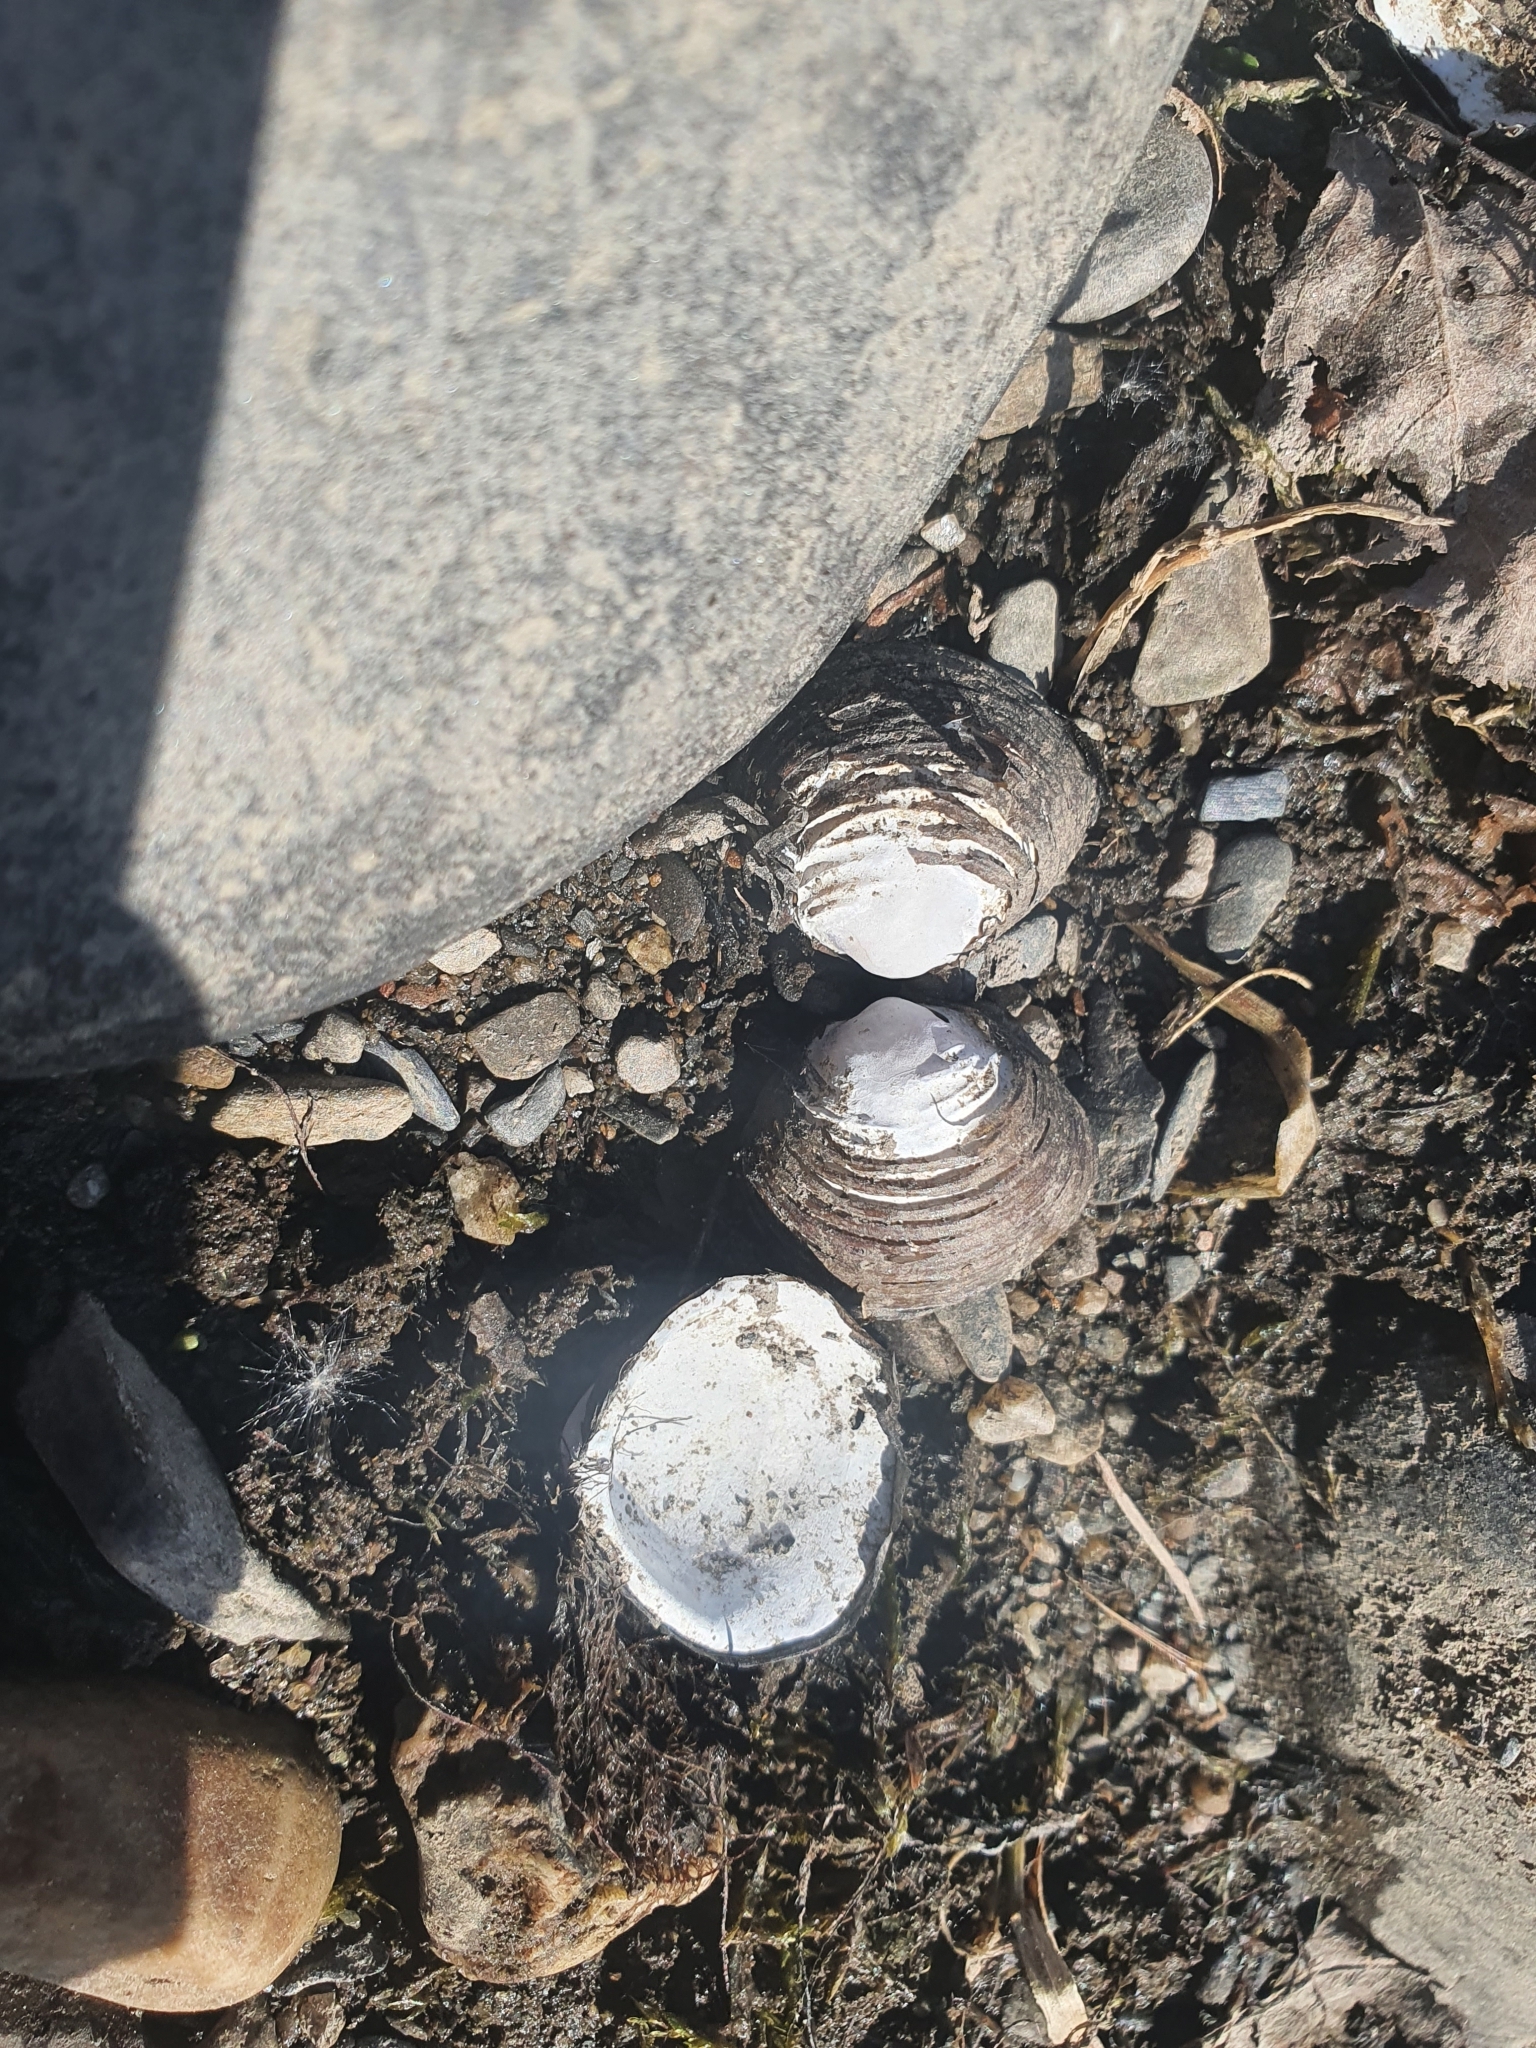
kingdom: Animalia
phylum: Mollusca
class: Bivalvia
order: Venerida
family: Cyrenidae
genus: Corbicula
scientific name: Corbicula fluminea
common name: Asian clam
